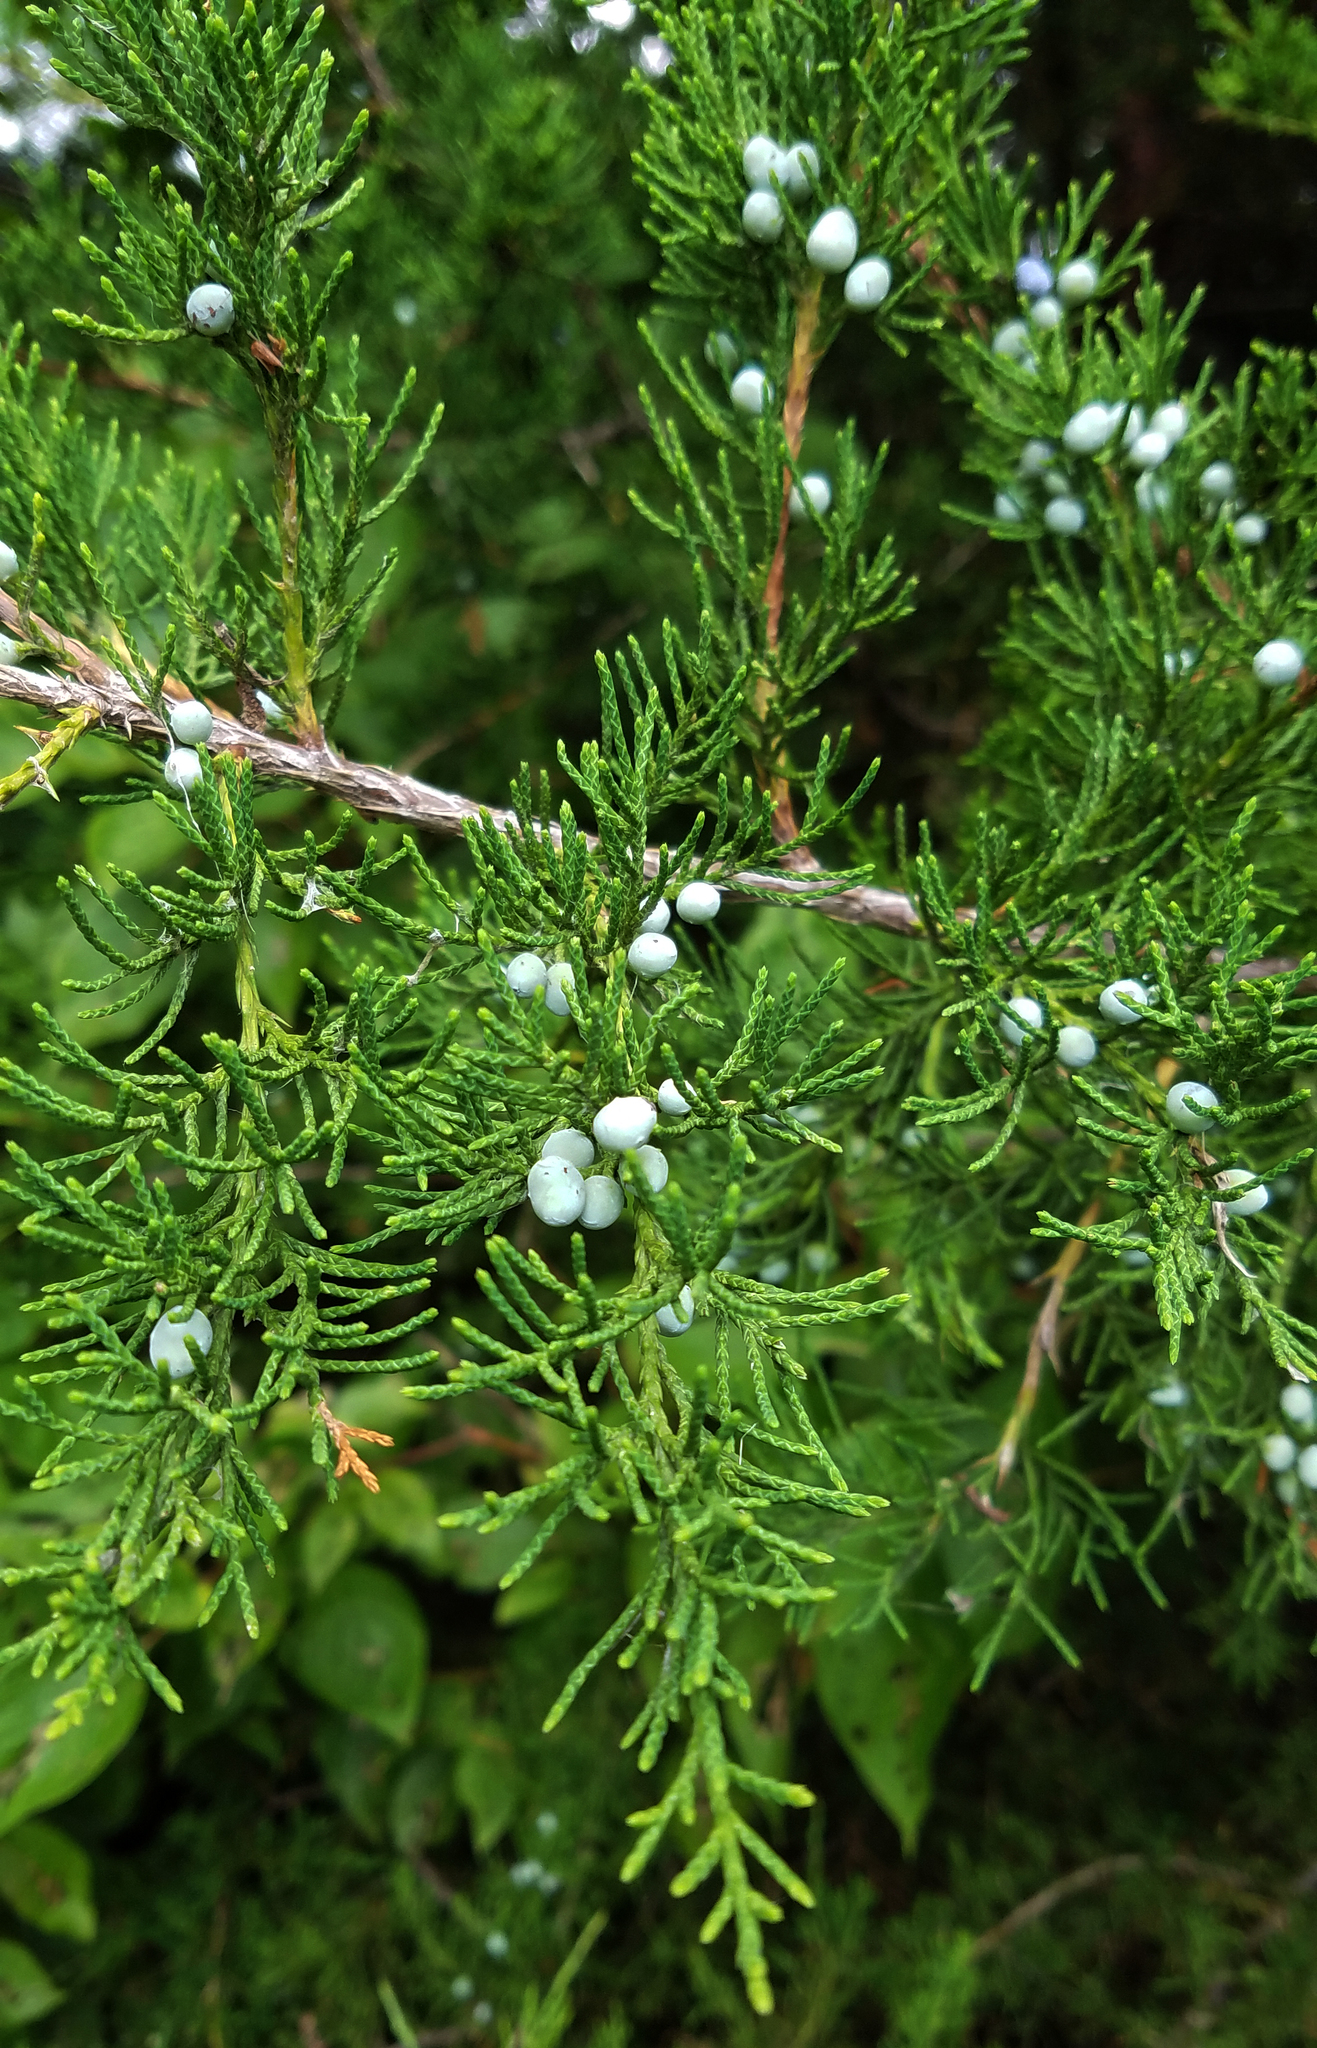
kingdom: Plantae
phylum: Tracheophyta
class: Pinopsida
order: Pinales
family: Cupressaceae
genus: Juniperus
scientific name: Juniperus virginiana
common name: Red juniper
